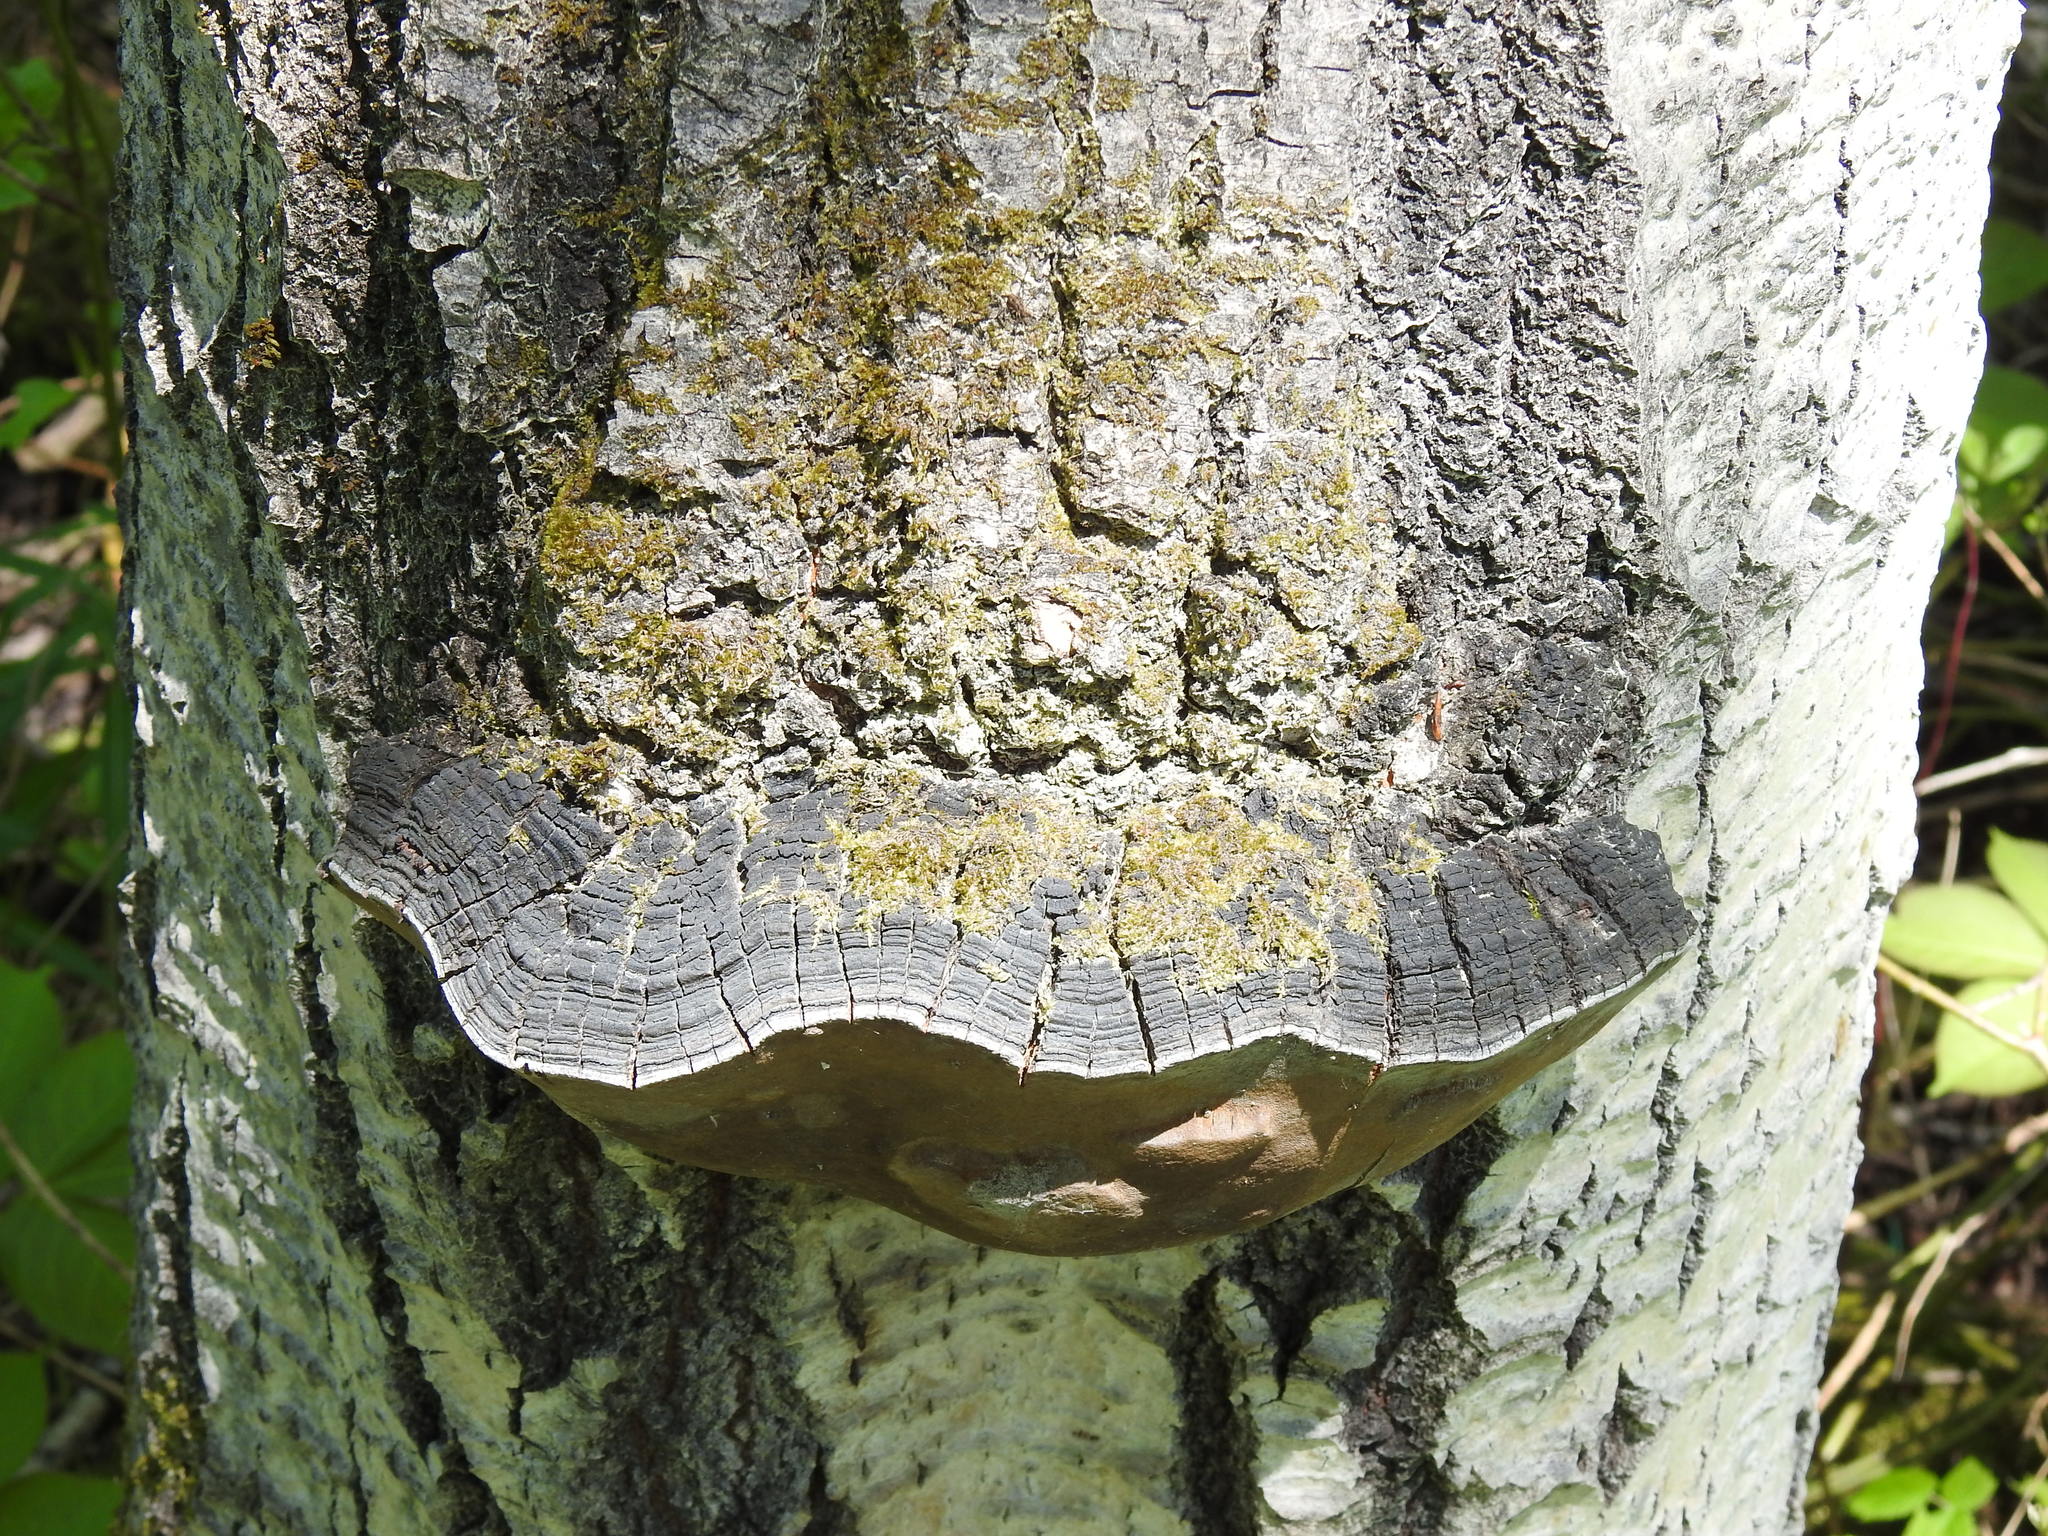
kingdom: Fungi
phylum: Basidiomycota
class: Agaricomycetes
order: Hymenochaetales
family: Hymenochaetaceae
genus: Phellinus
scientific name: Phellinus tremulae
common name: Aspen bracket
